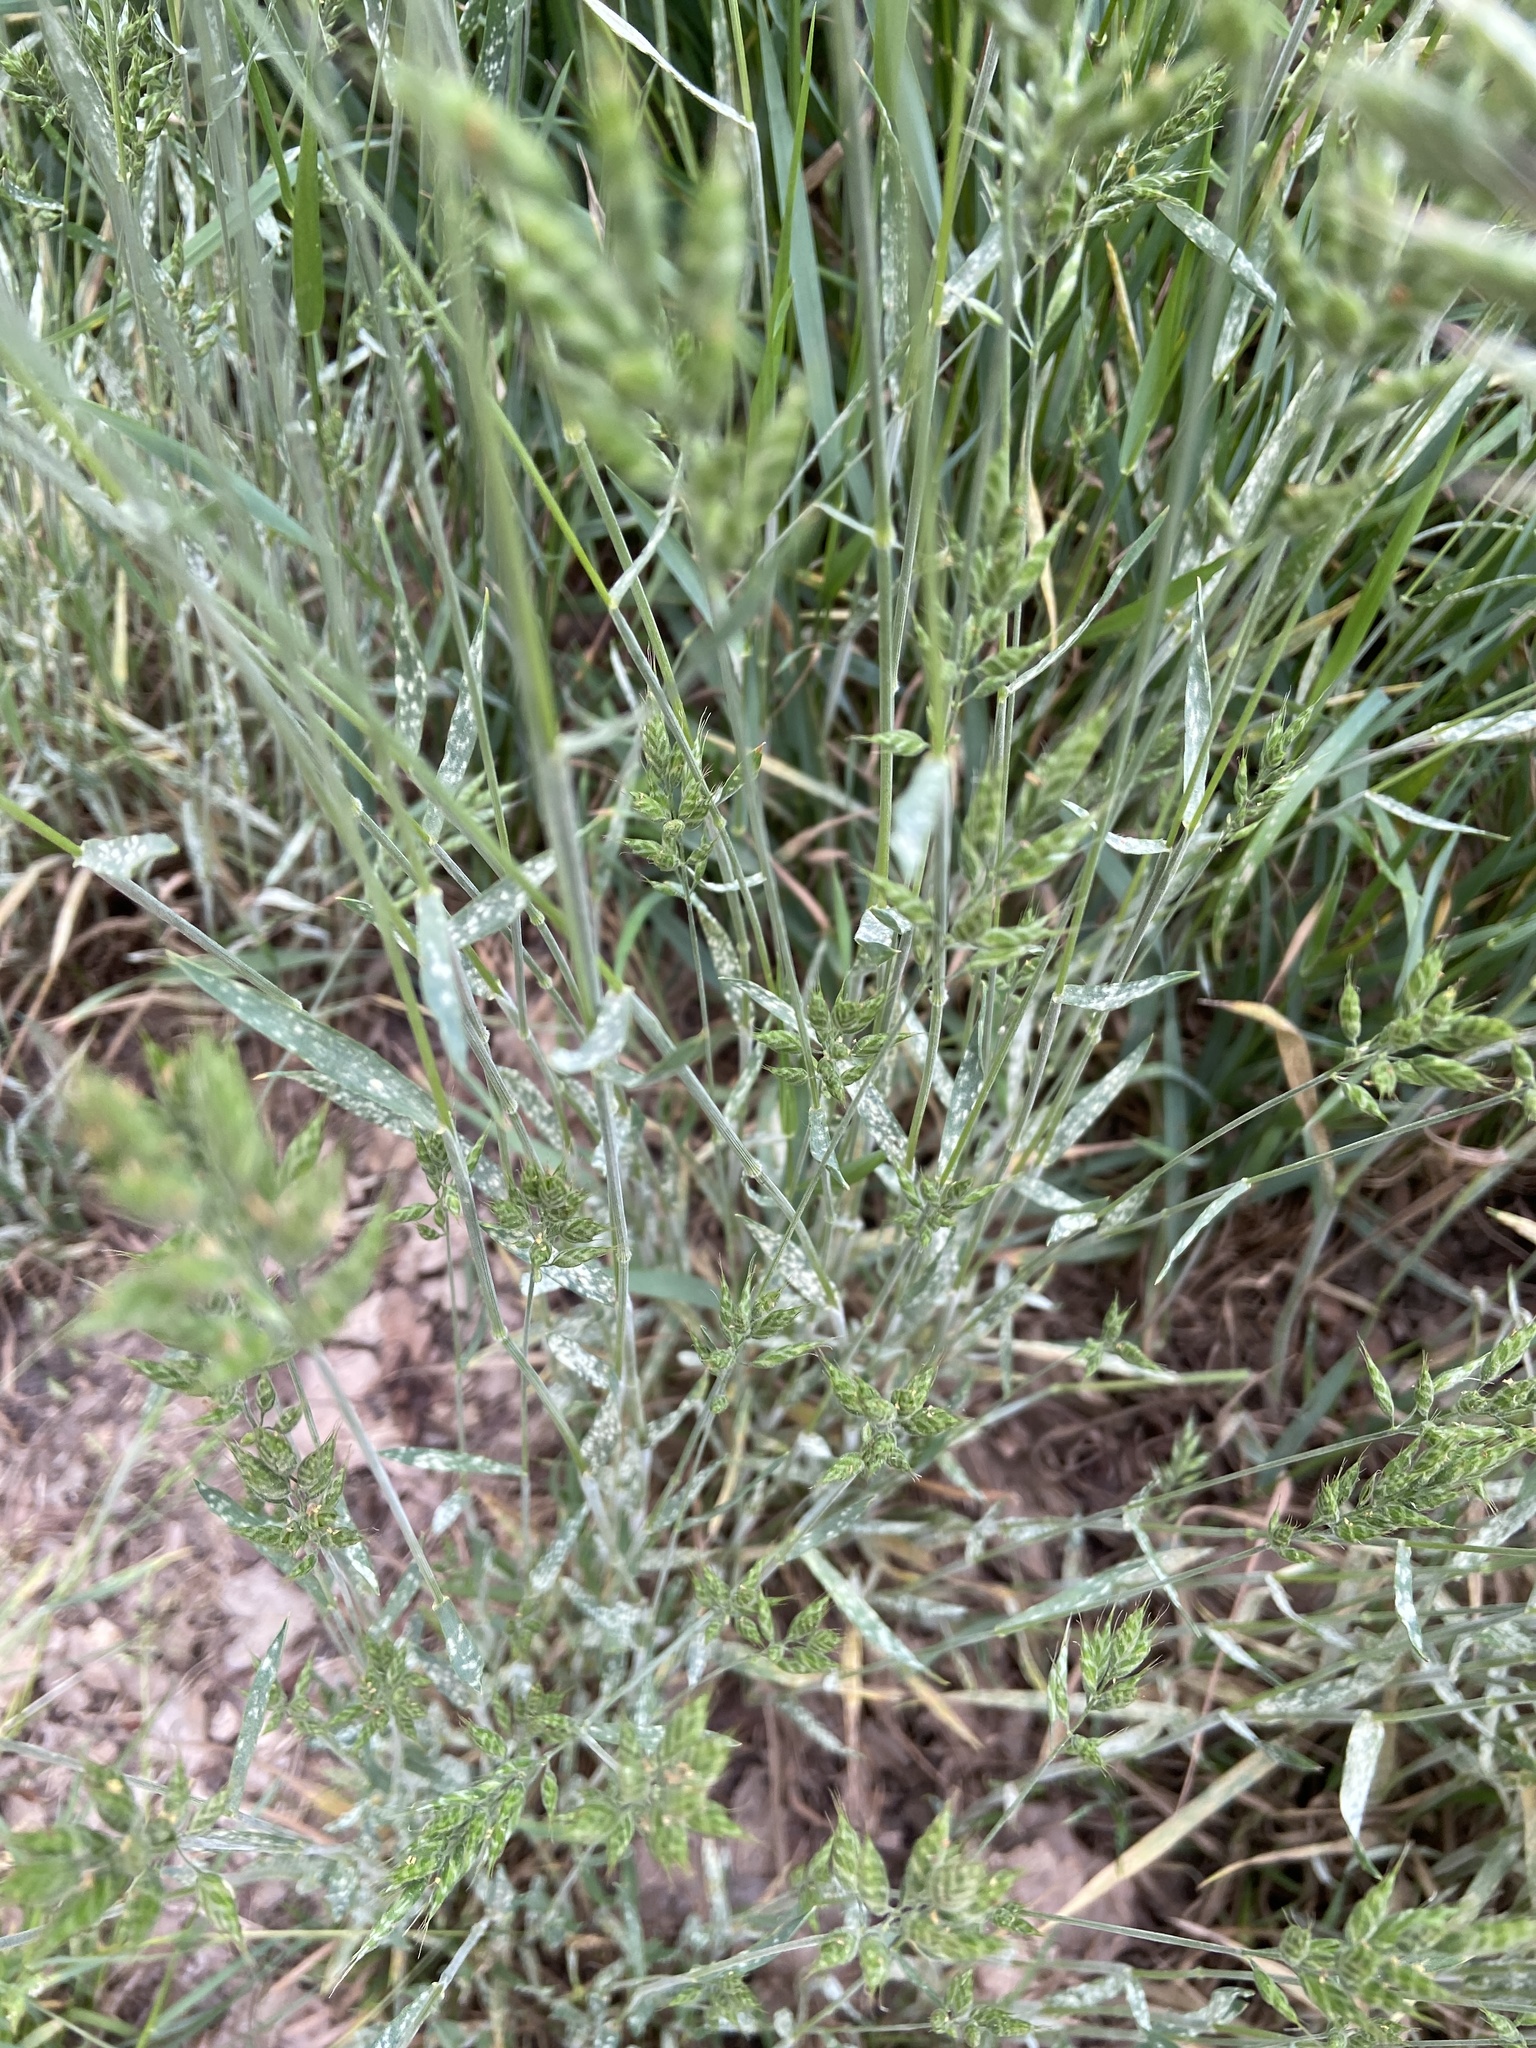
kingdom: Plantae
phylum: Tracheophyta
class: Liliopsida
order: Poales
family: Poaceae
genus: Bromus
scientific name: Bromus hordeaceus
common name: Soft brome
